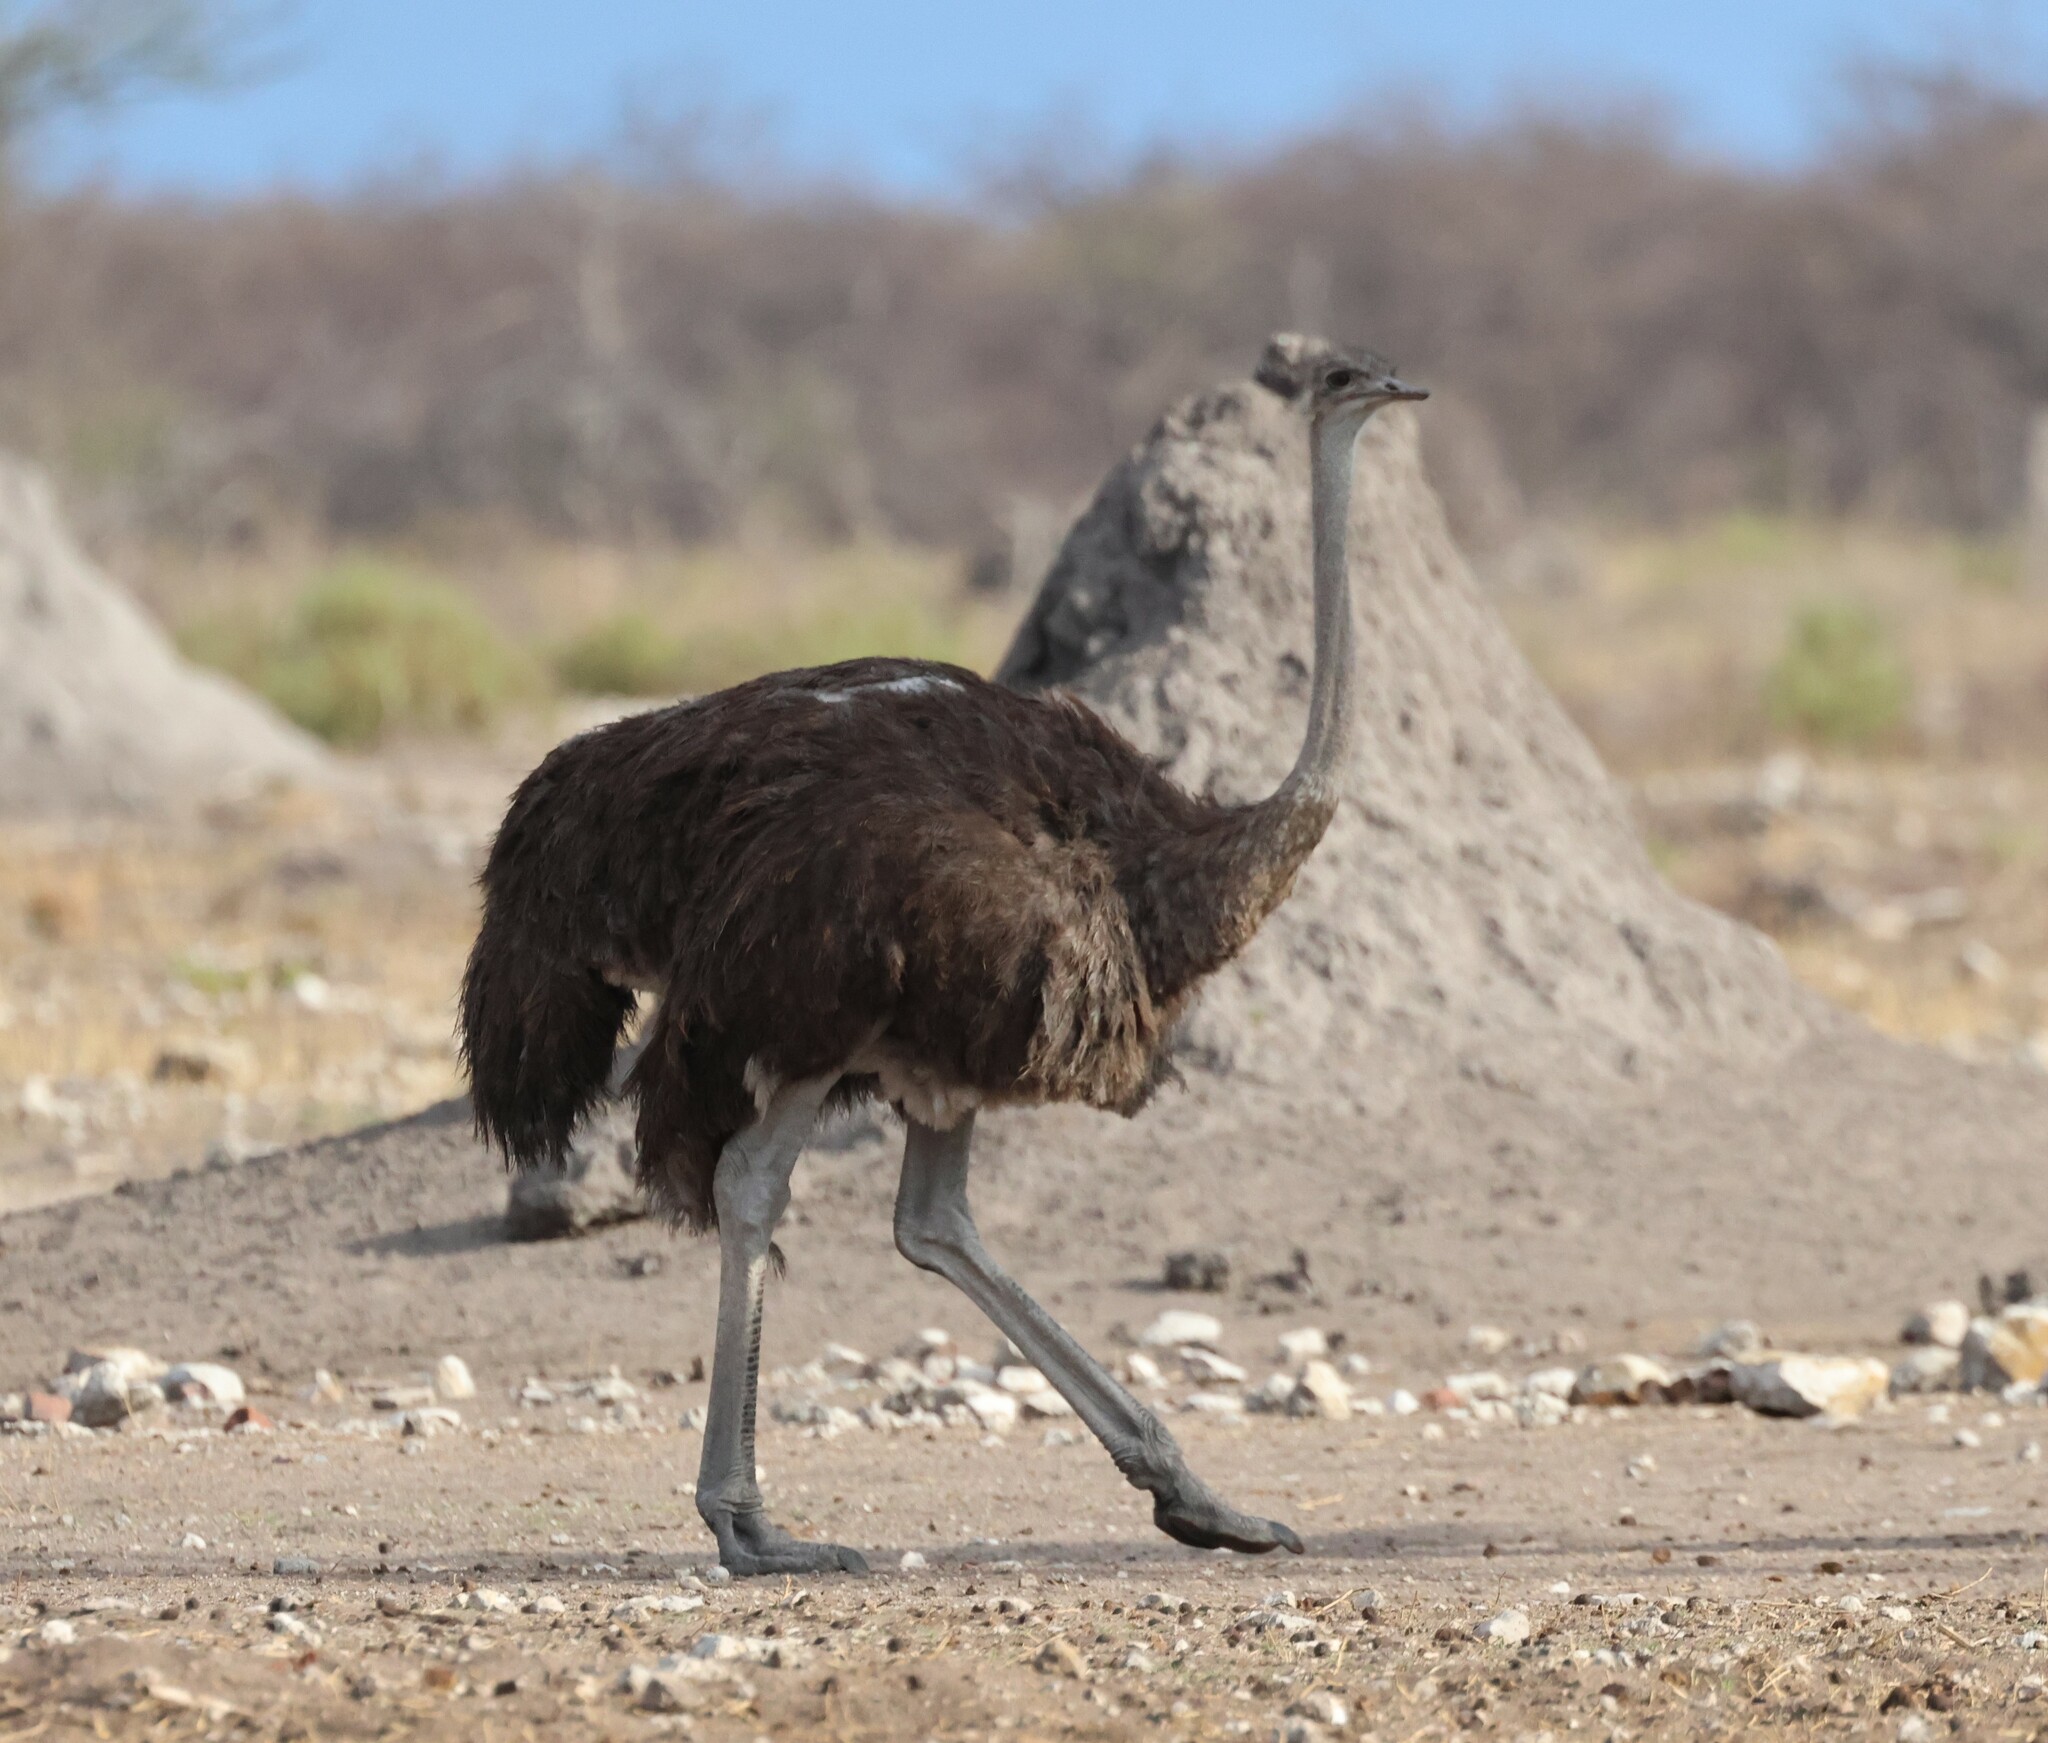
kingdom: Animalia
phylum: Chordata
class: Aves
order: Struthioniformes
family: Struthionidae
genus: Struthio
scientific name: Struthio camelus
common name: Common ostrich
